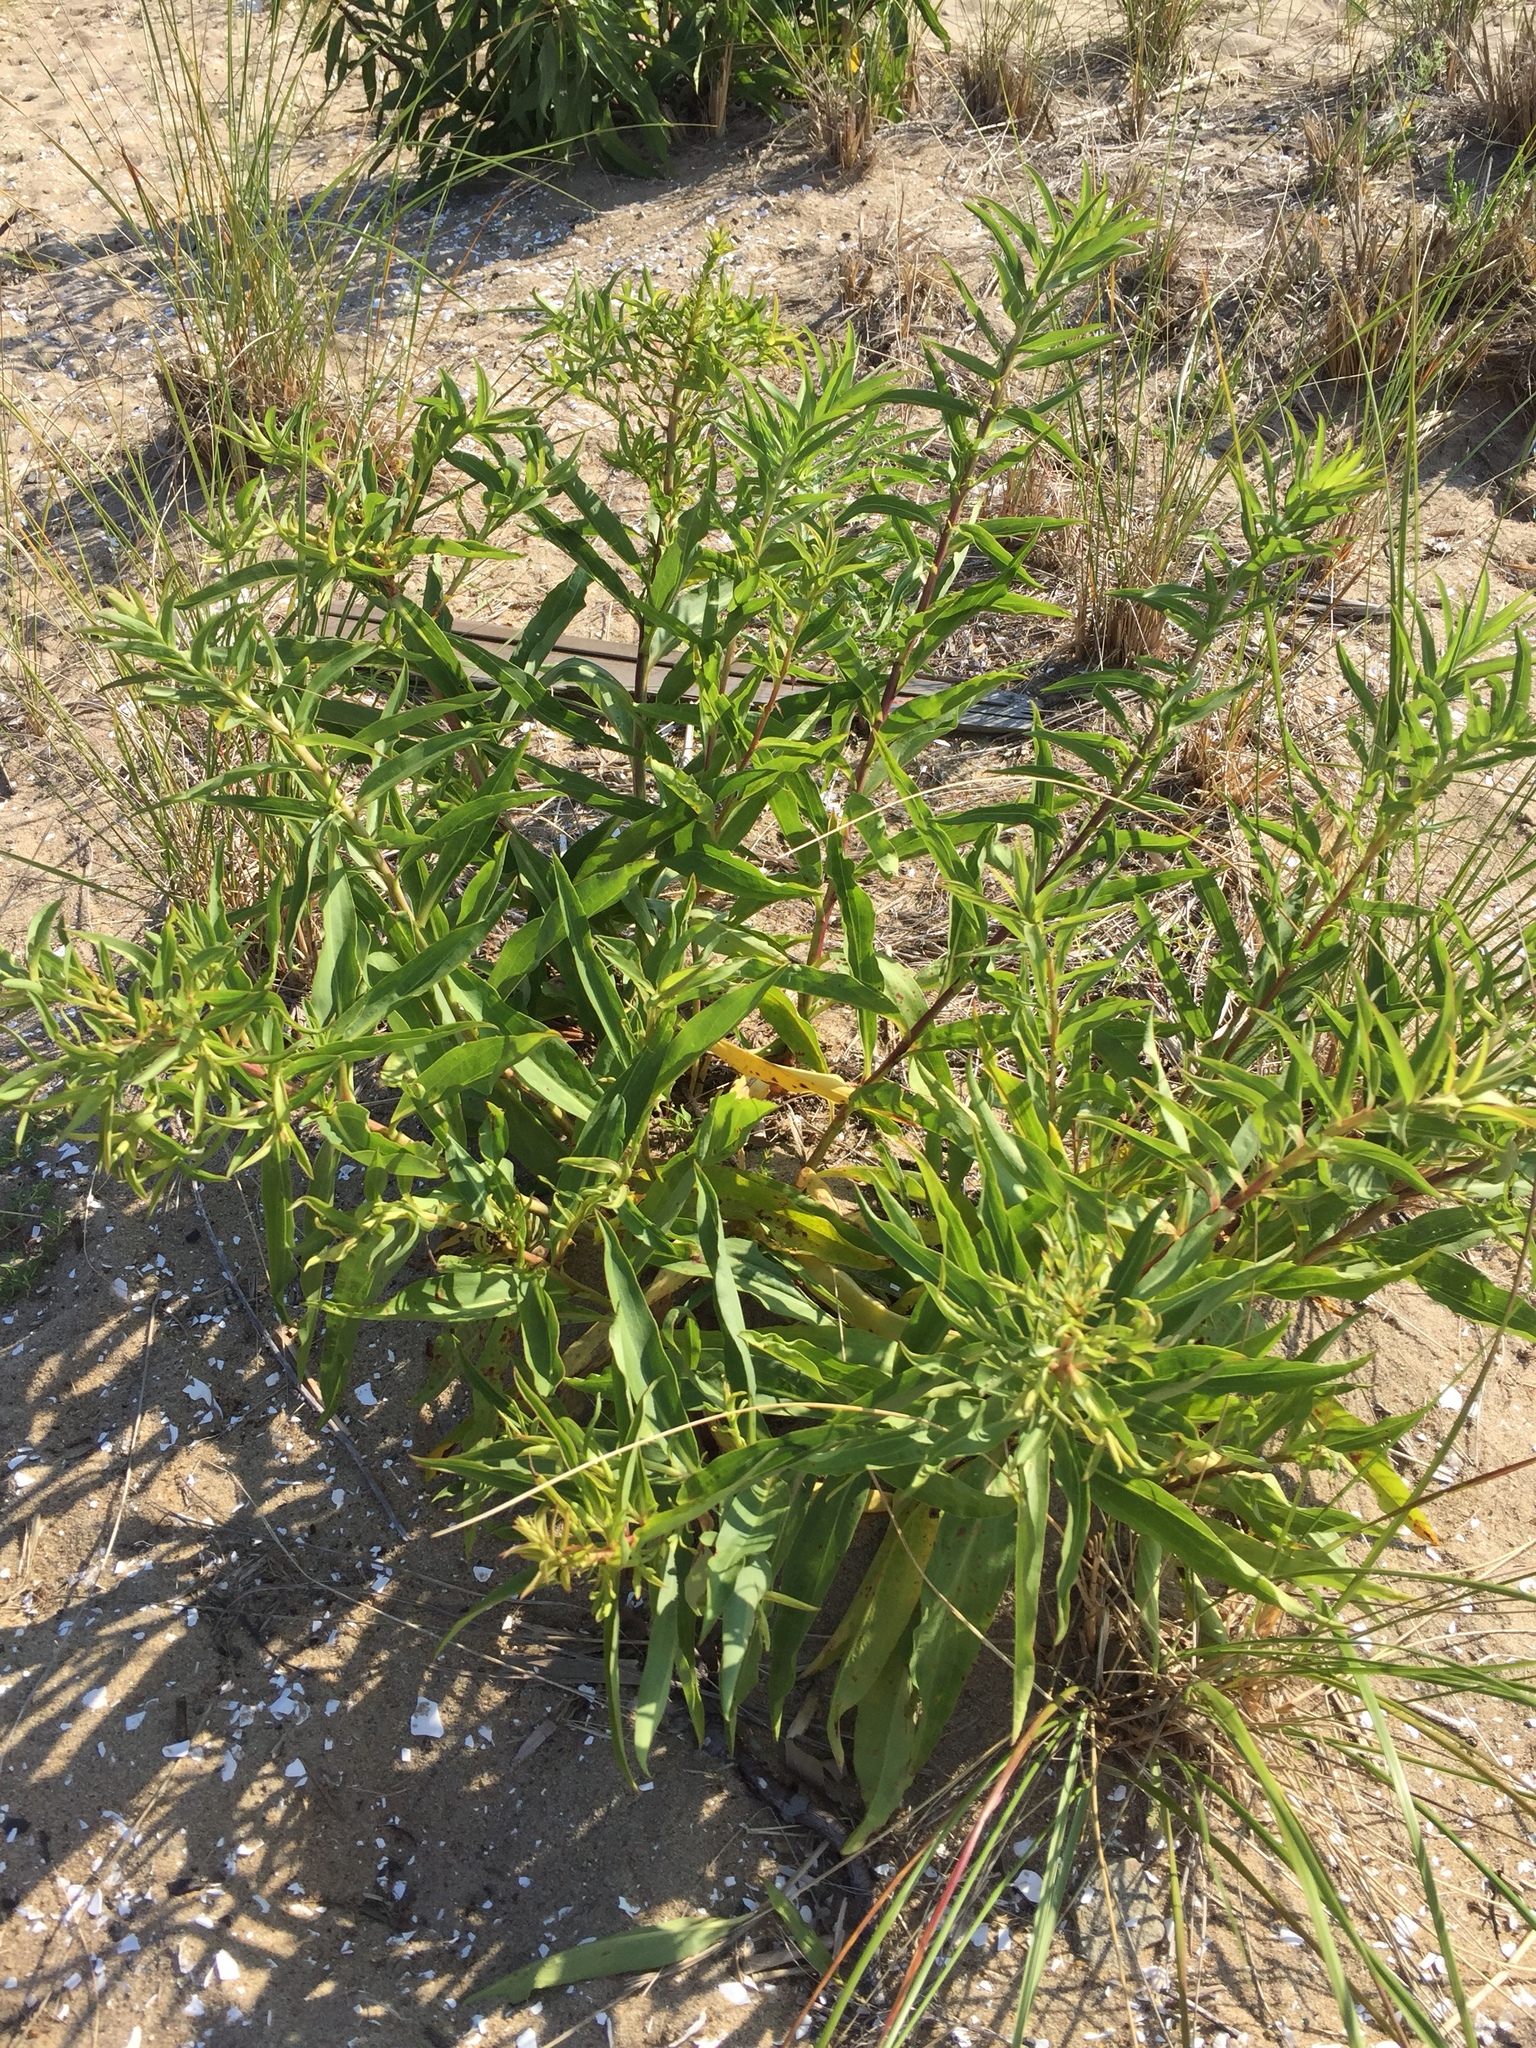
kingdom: Plantae
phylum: Tracheophyta
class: Magnoliopsida
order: Asterales
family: Asteraceae
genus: Solidago
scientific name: Solidago sempervirens
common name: Salt-marsh goldenrod
